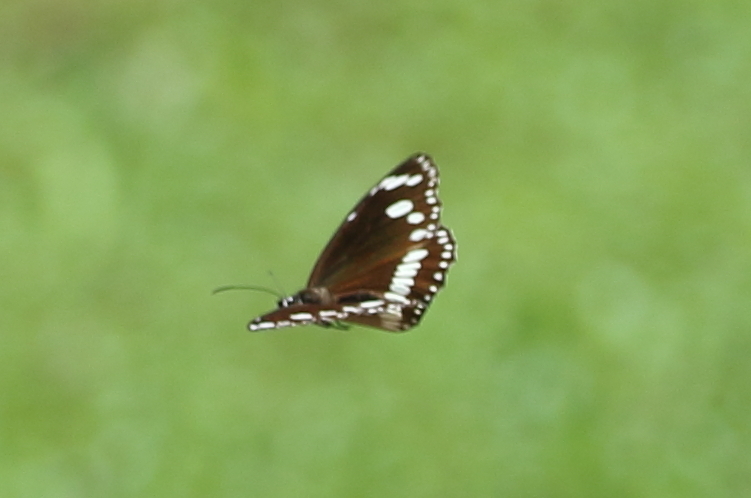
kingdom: Animalia
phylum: Arthropoda
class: Insecta
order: Lepidoptera
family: Nymphalidae
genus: Euploea
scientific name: Euploea core
